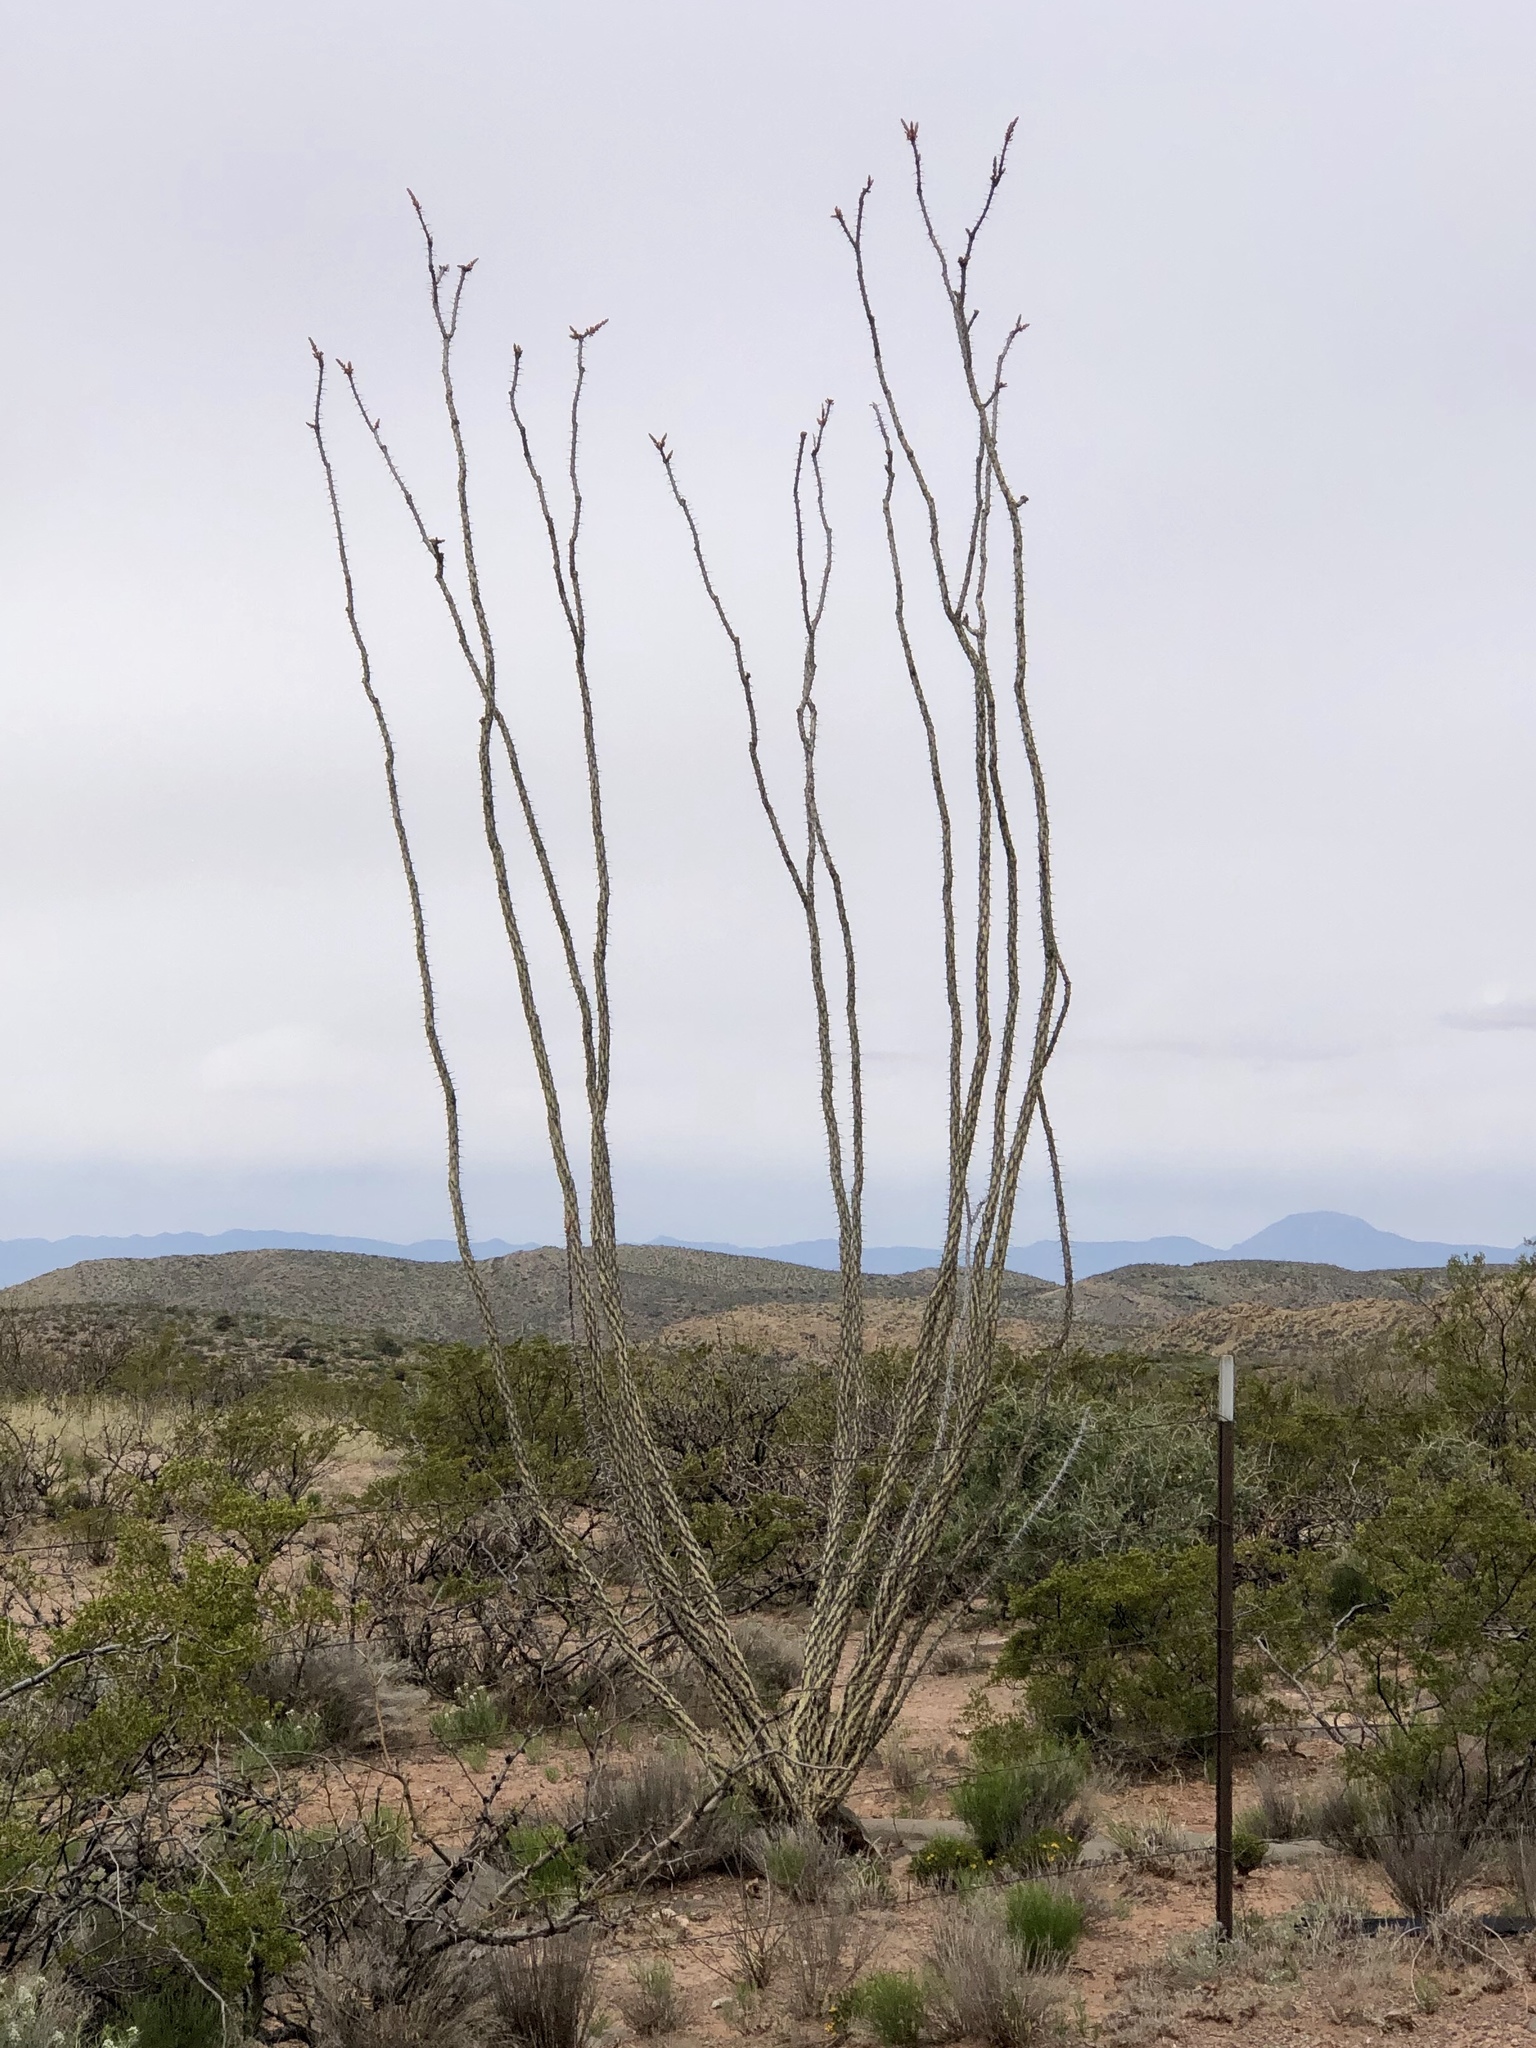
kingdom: Plantae
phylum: Tracheophyta
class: Magnoliopsida
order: Ericales
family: Fouquieriaceae
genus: Fouquieria
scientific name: Fouquieria splendens
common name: Vine-cactus
